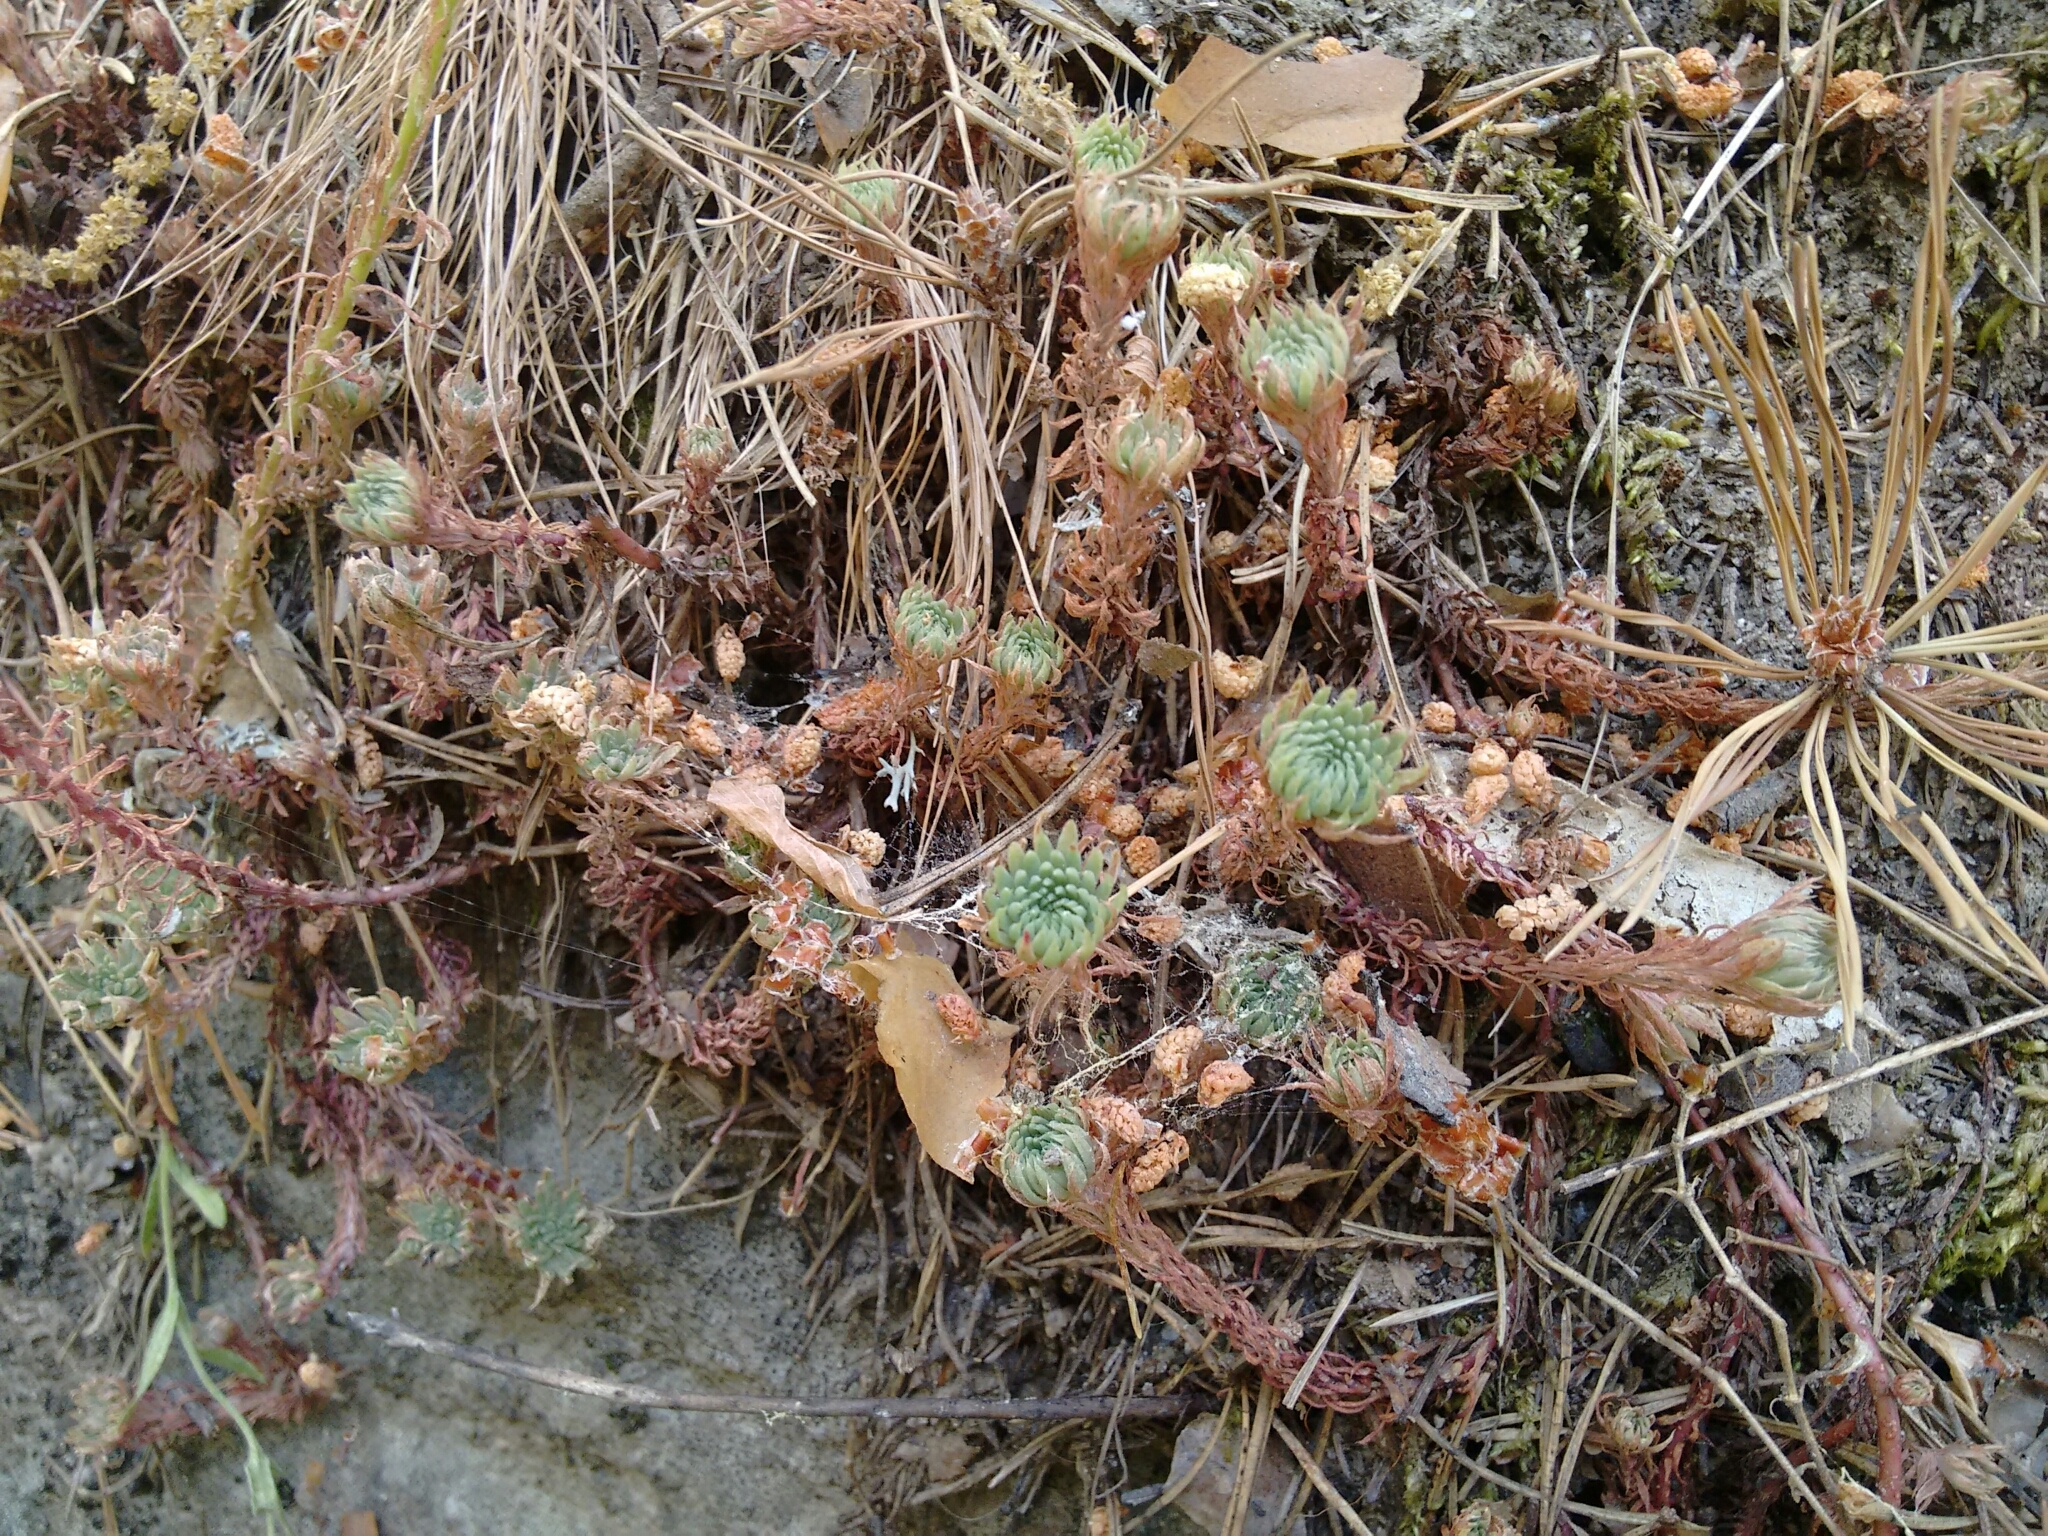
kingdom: Plantae
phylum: Tracheophyta
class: Magnoliopsida
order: Saxifragales
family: Crassulaceae
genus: Petrosedum
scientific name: Petrosedum forsterianum
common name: Forster's stonecrop
